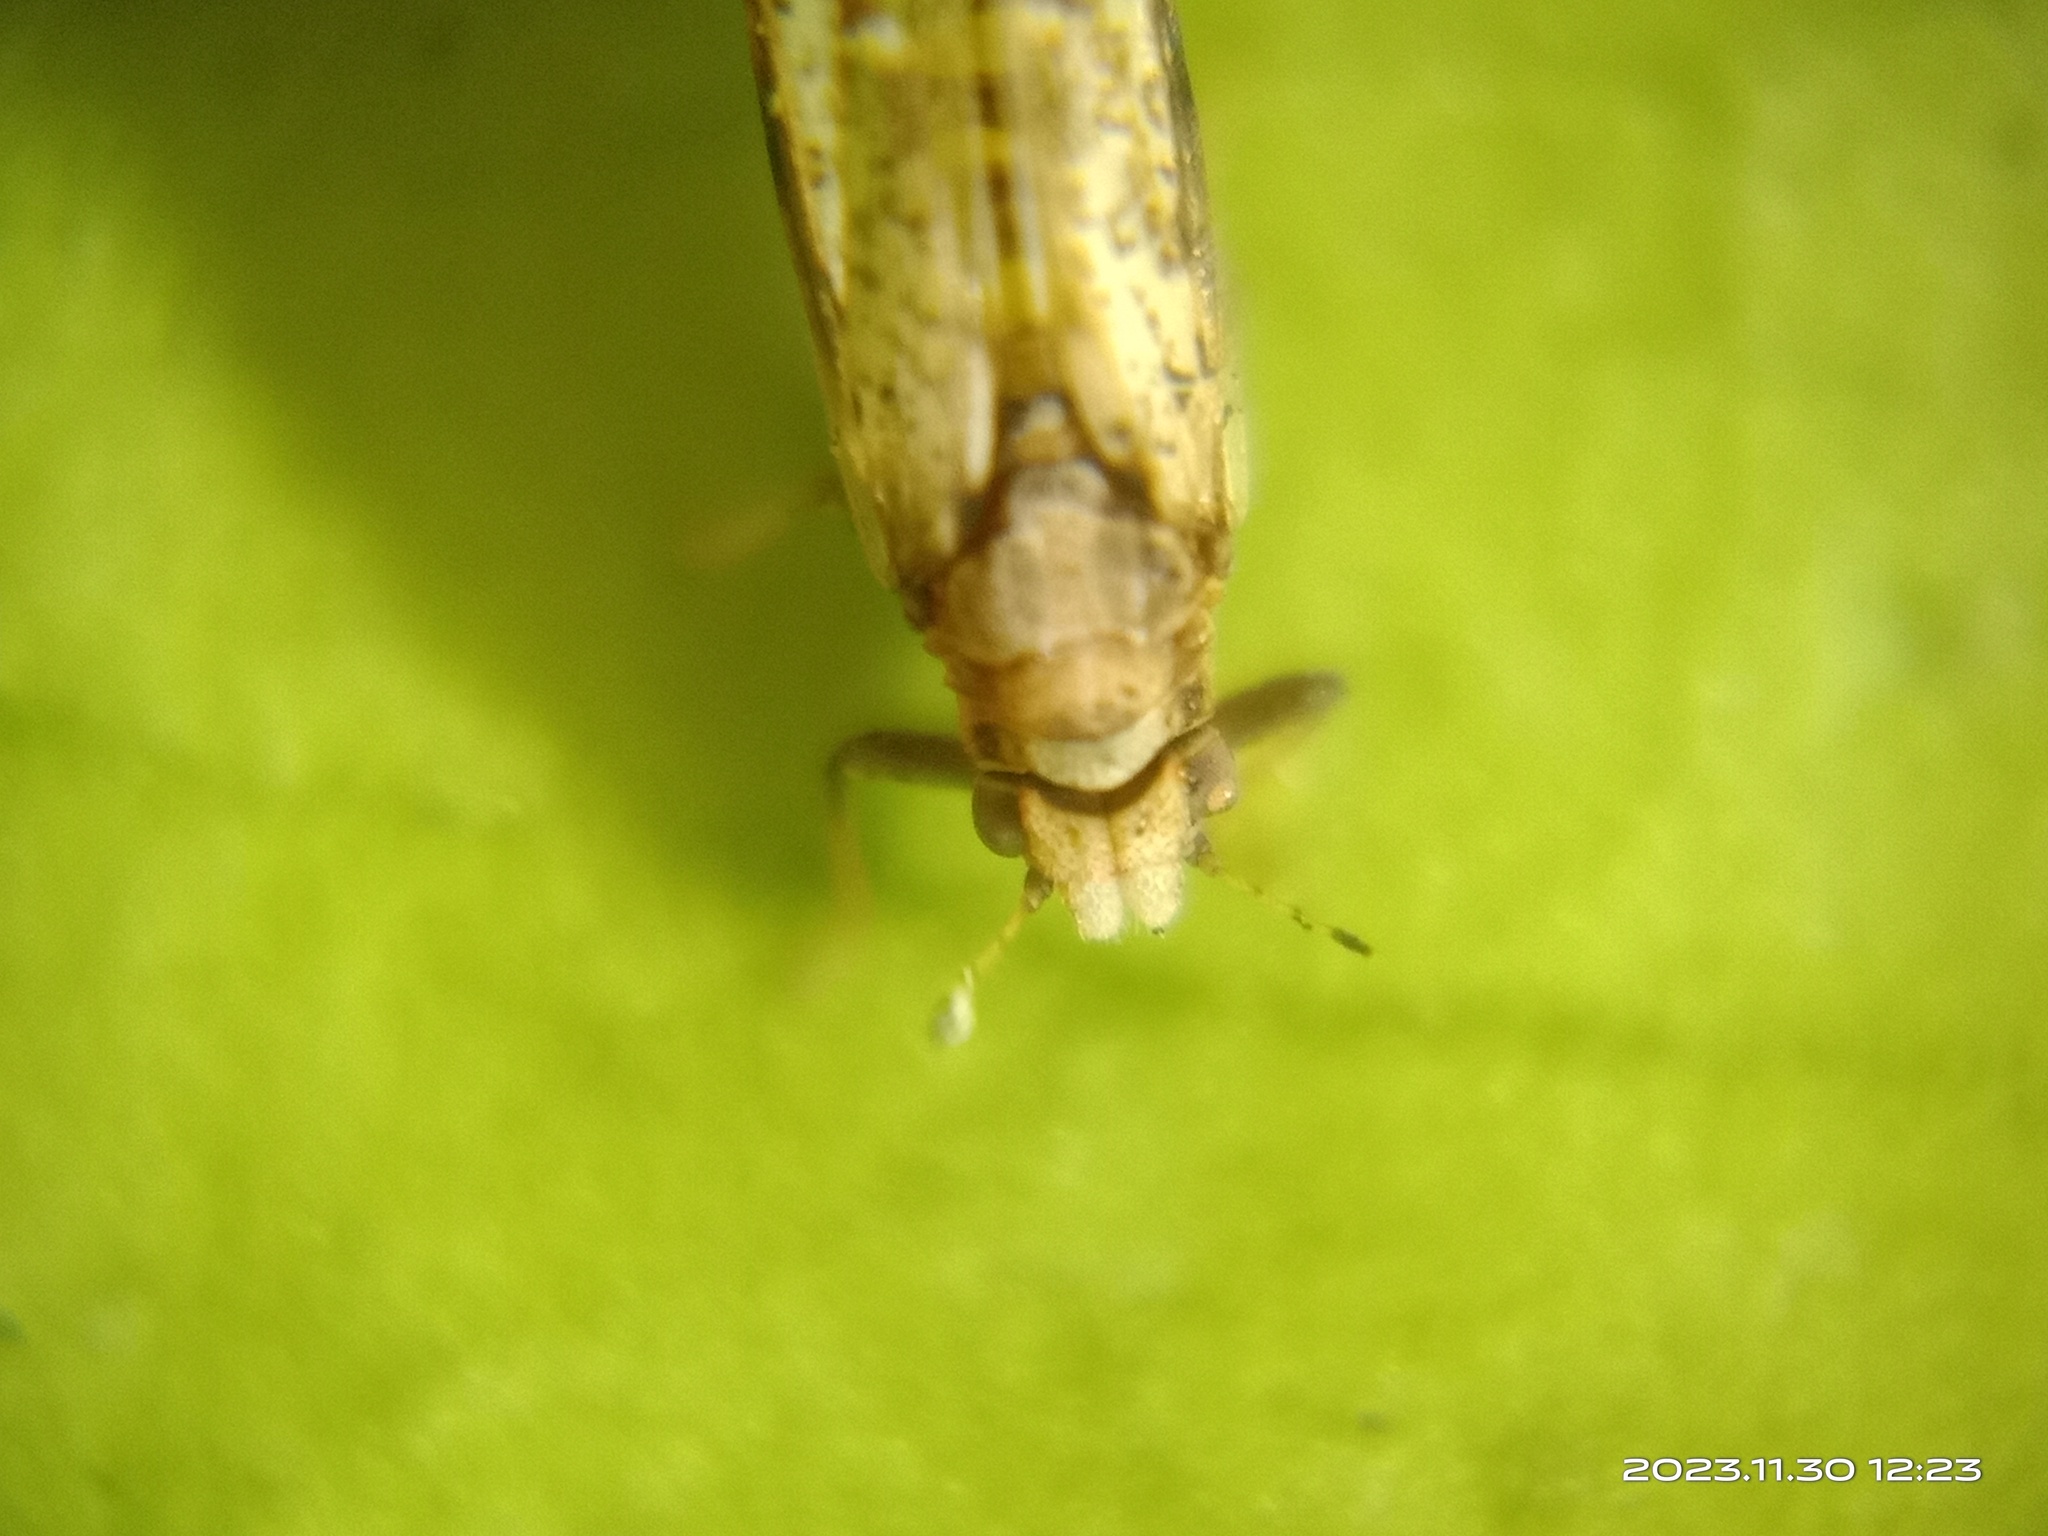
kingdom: Animalia
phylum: Arthropoda
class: Insecta
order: Hemiptera
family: Liviidae
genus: Diaphorina
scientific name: Diaphorina citri
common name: Asian citrus psyllid
